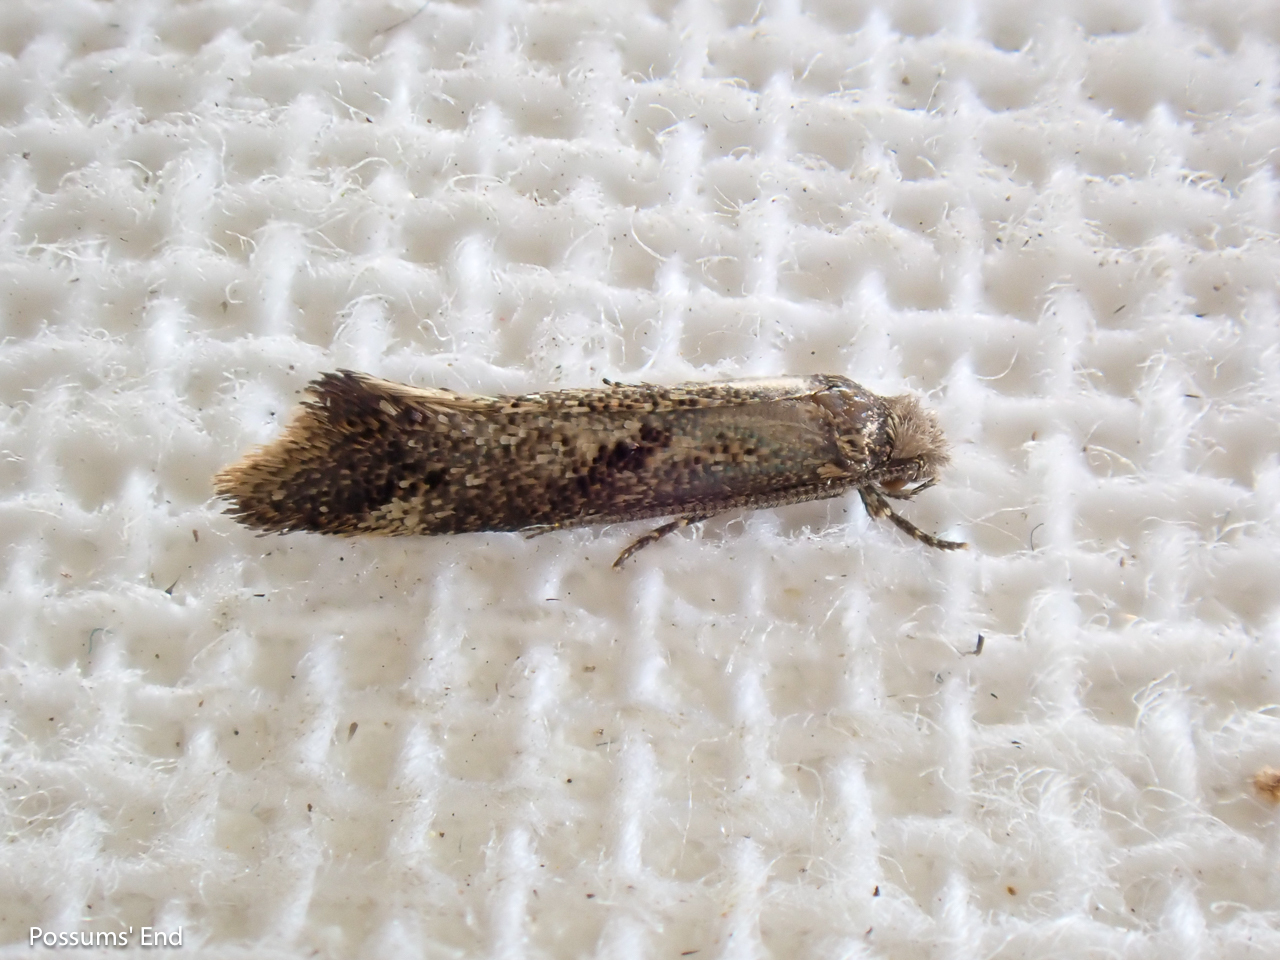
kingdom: Animalia
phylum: Arthropoda
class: Insecta
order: Lepidoptera
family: Tineidae
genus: Tinea
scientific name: Tinea mochlota
